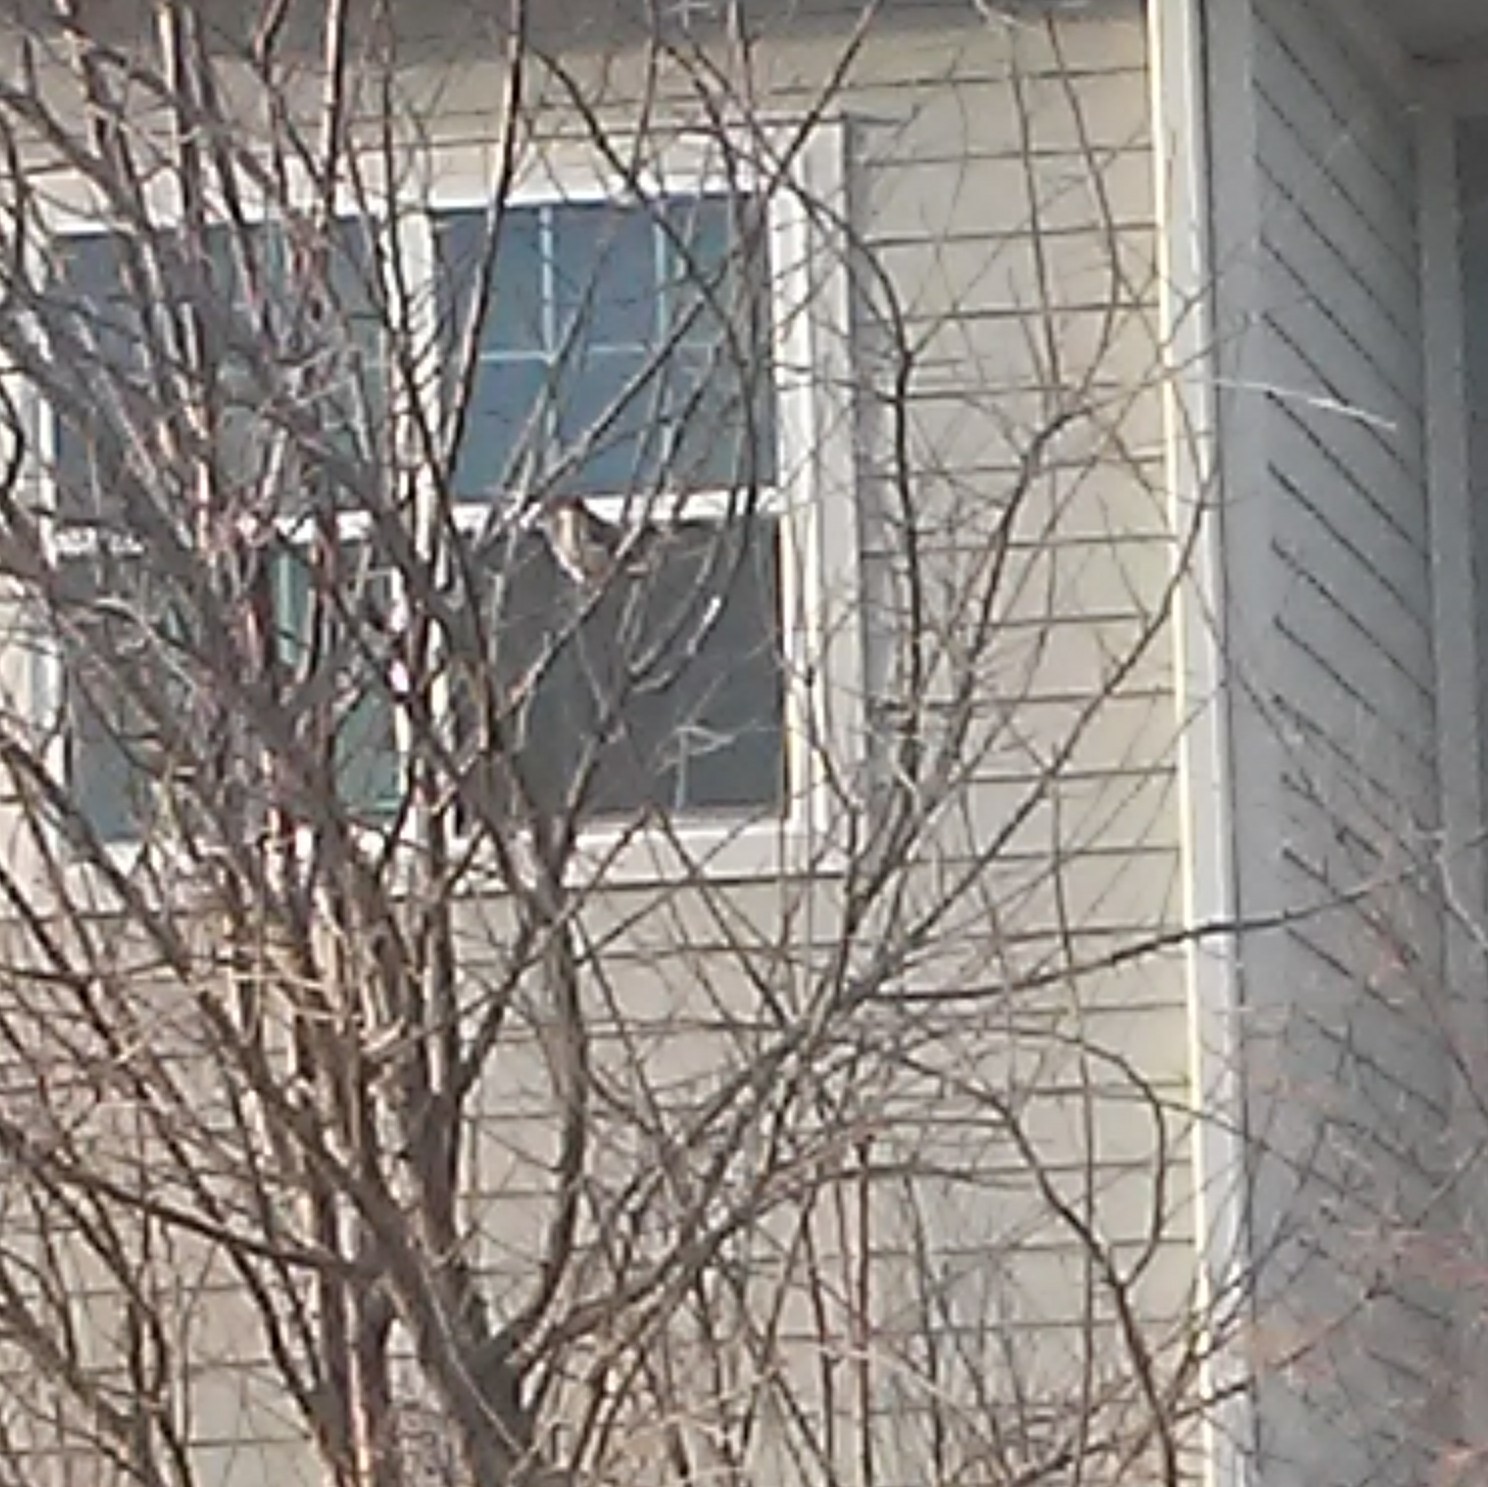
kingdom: Animalia
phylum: Chordata
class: Aves
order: Passeriformes
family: Passeridae
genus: Passer
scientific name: Passer domesticus
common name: House sparrow
